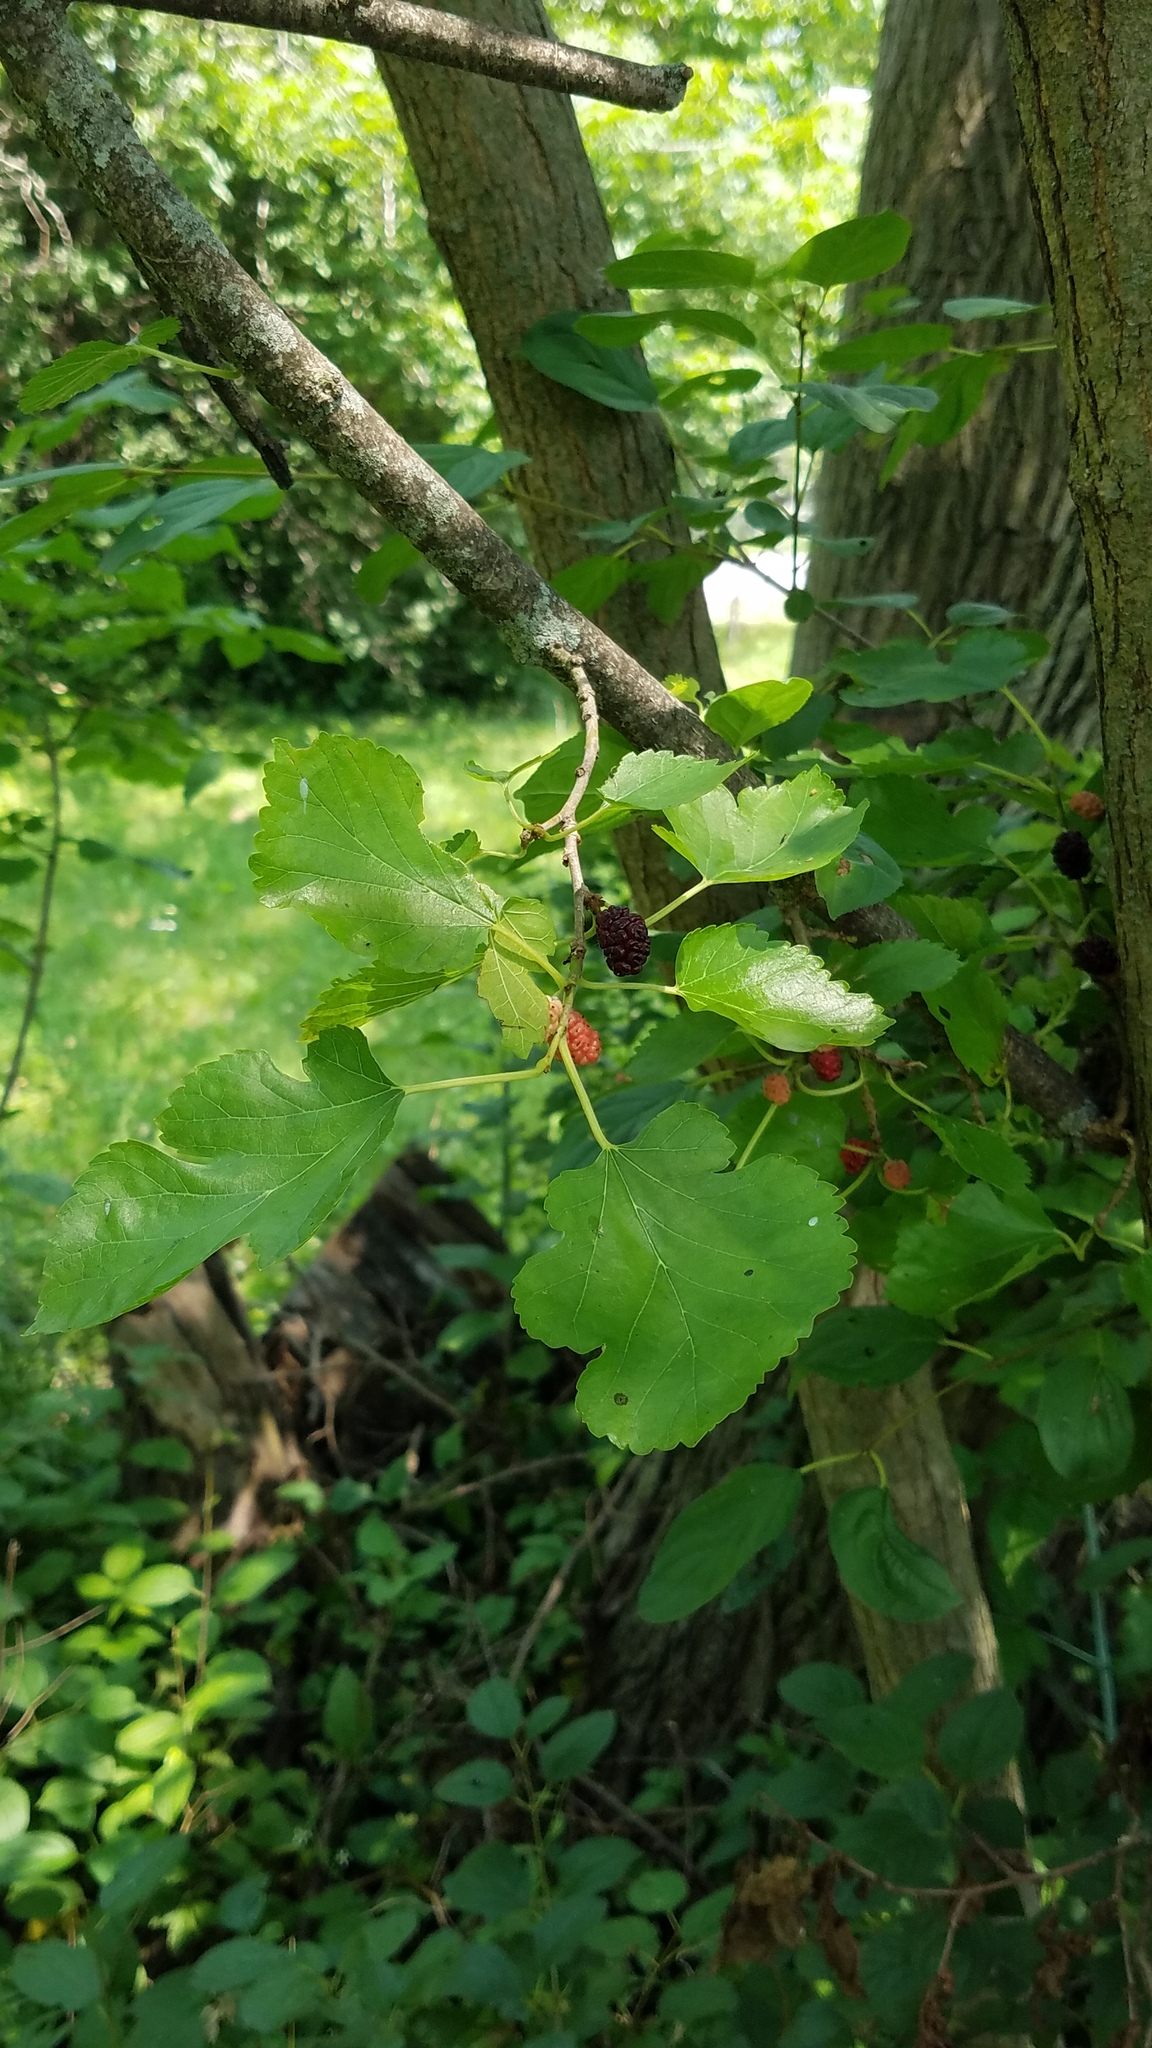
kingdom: Plantae
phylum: Tracheophyta
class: Magnoliopsida
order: Rosales
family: Moraceae
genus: Morus
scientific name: Morus alba
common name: White mulberry
